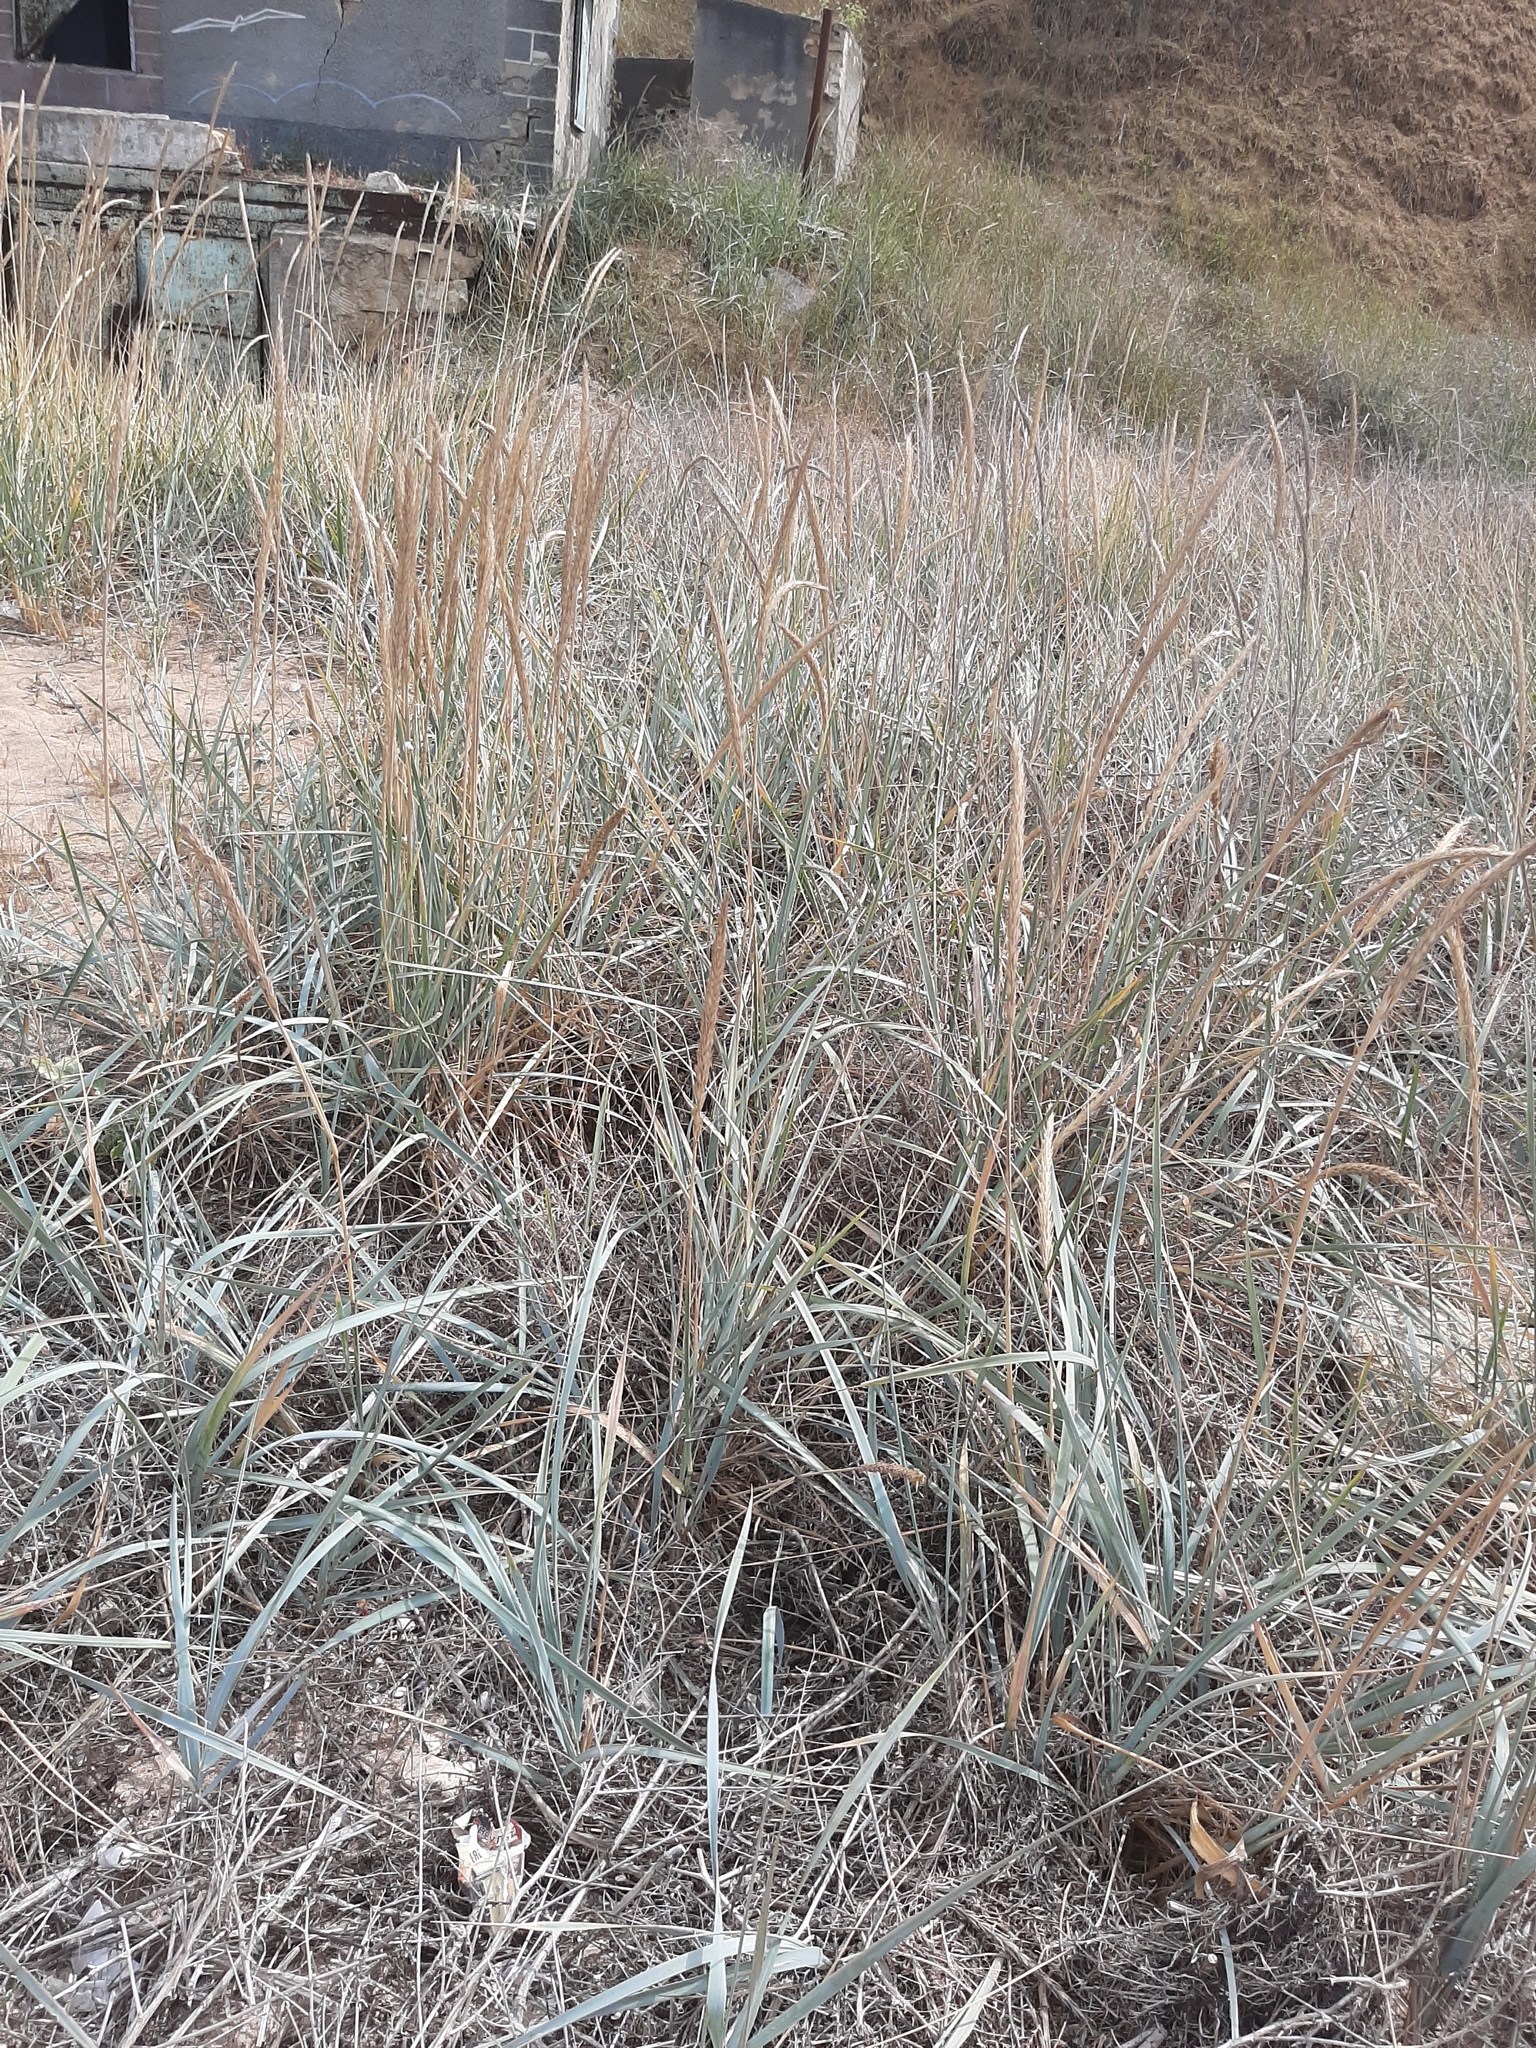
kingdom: Plantae
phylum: Tracheophyta
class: Liliopsida
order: Poales
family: Poaceae
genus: Leymus
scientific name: Leymus racemosus
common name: Mammoth wildrye
